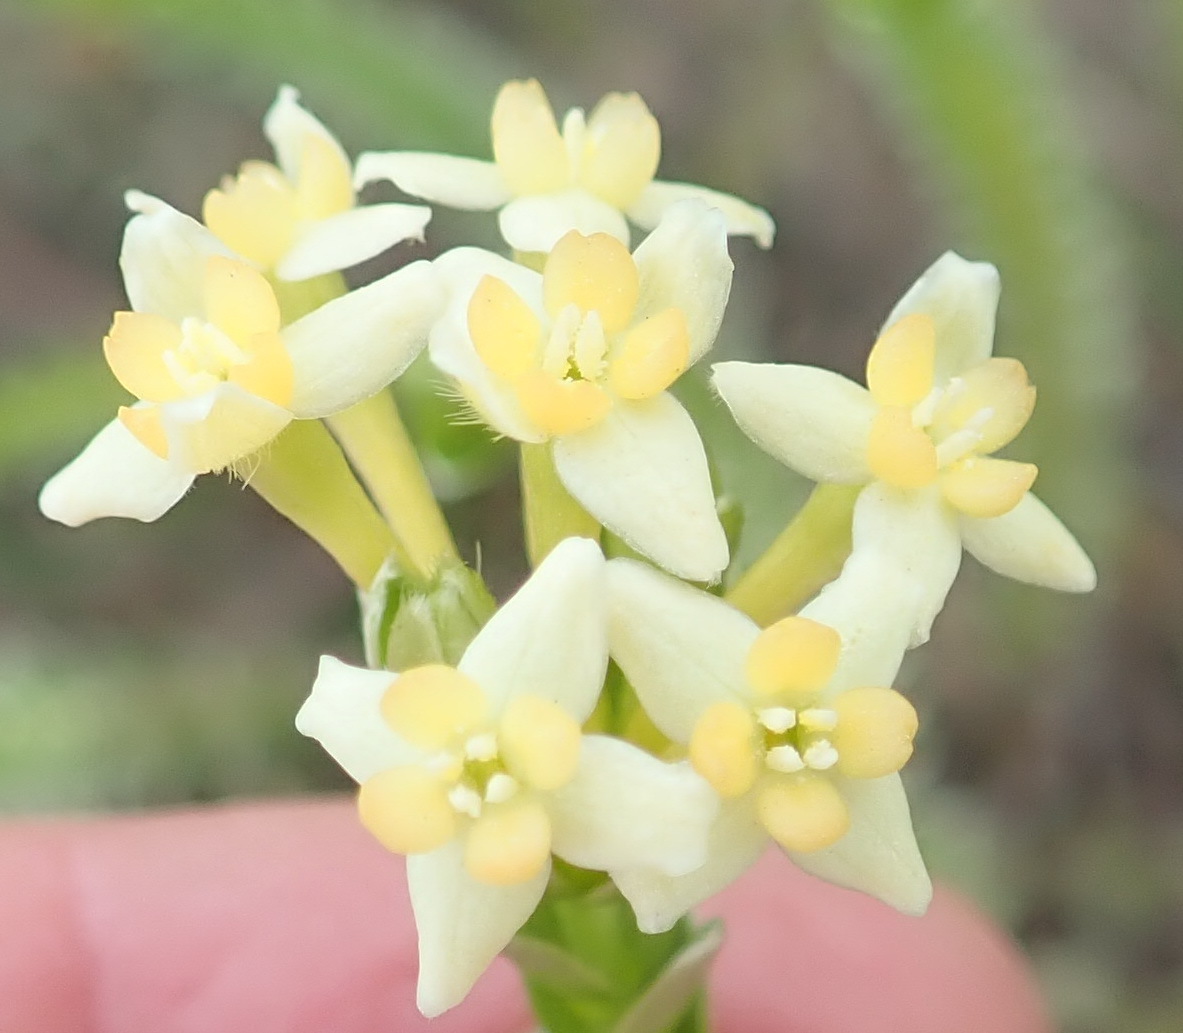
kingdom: Plantae
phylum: Tracheophyta
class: Magnoliopsida
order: Malvales
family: Thymelaeaceae
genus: Gnidia
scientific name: Gnidia chrysophylla
